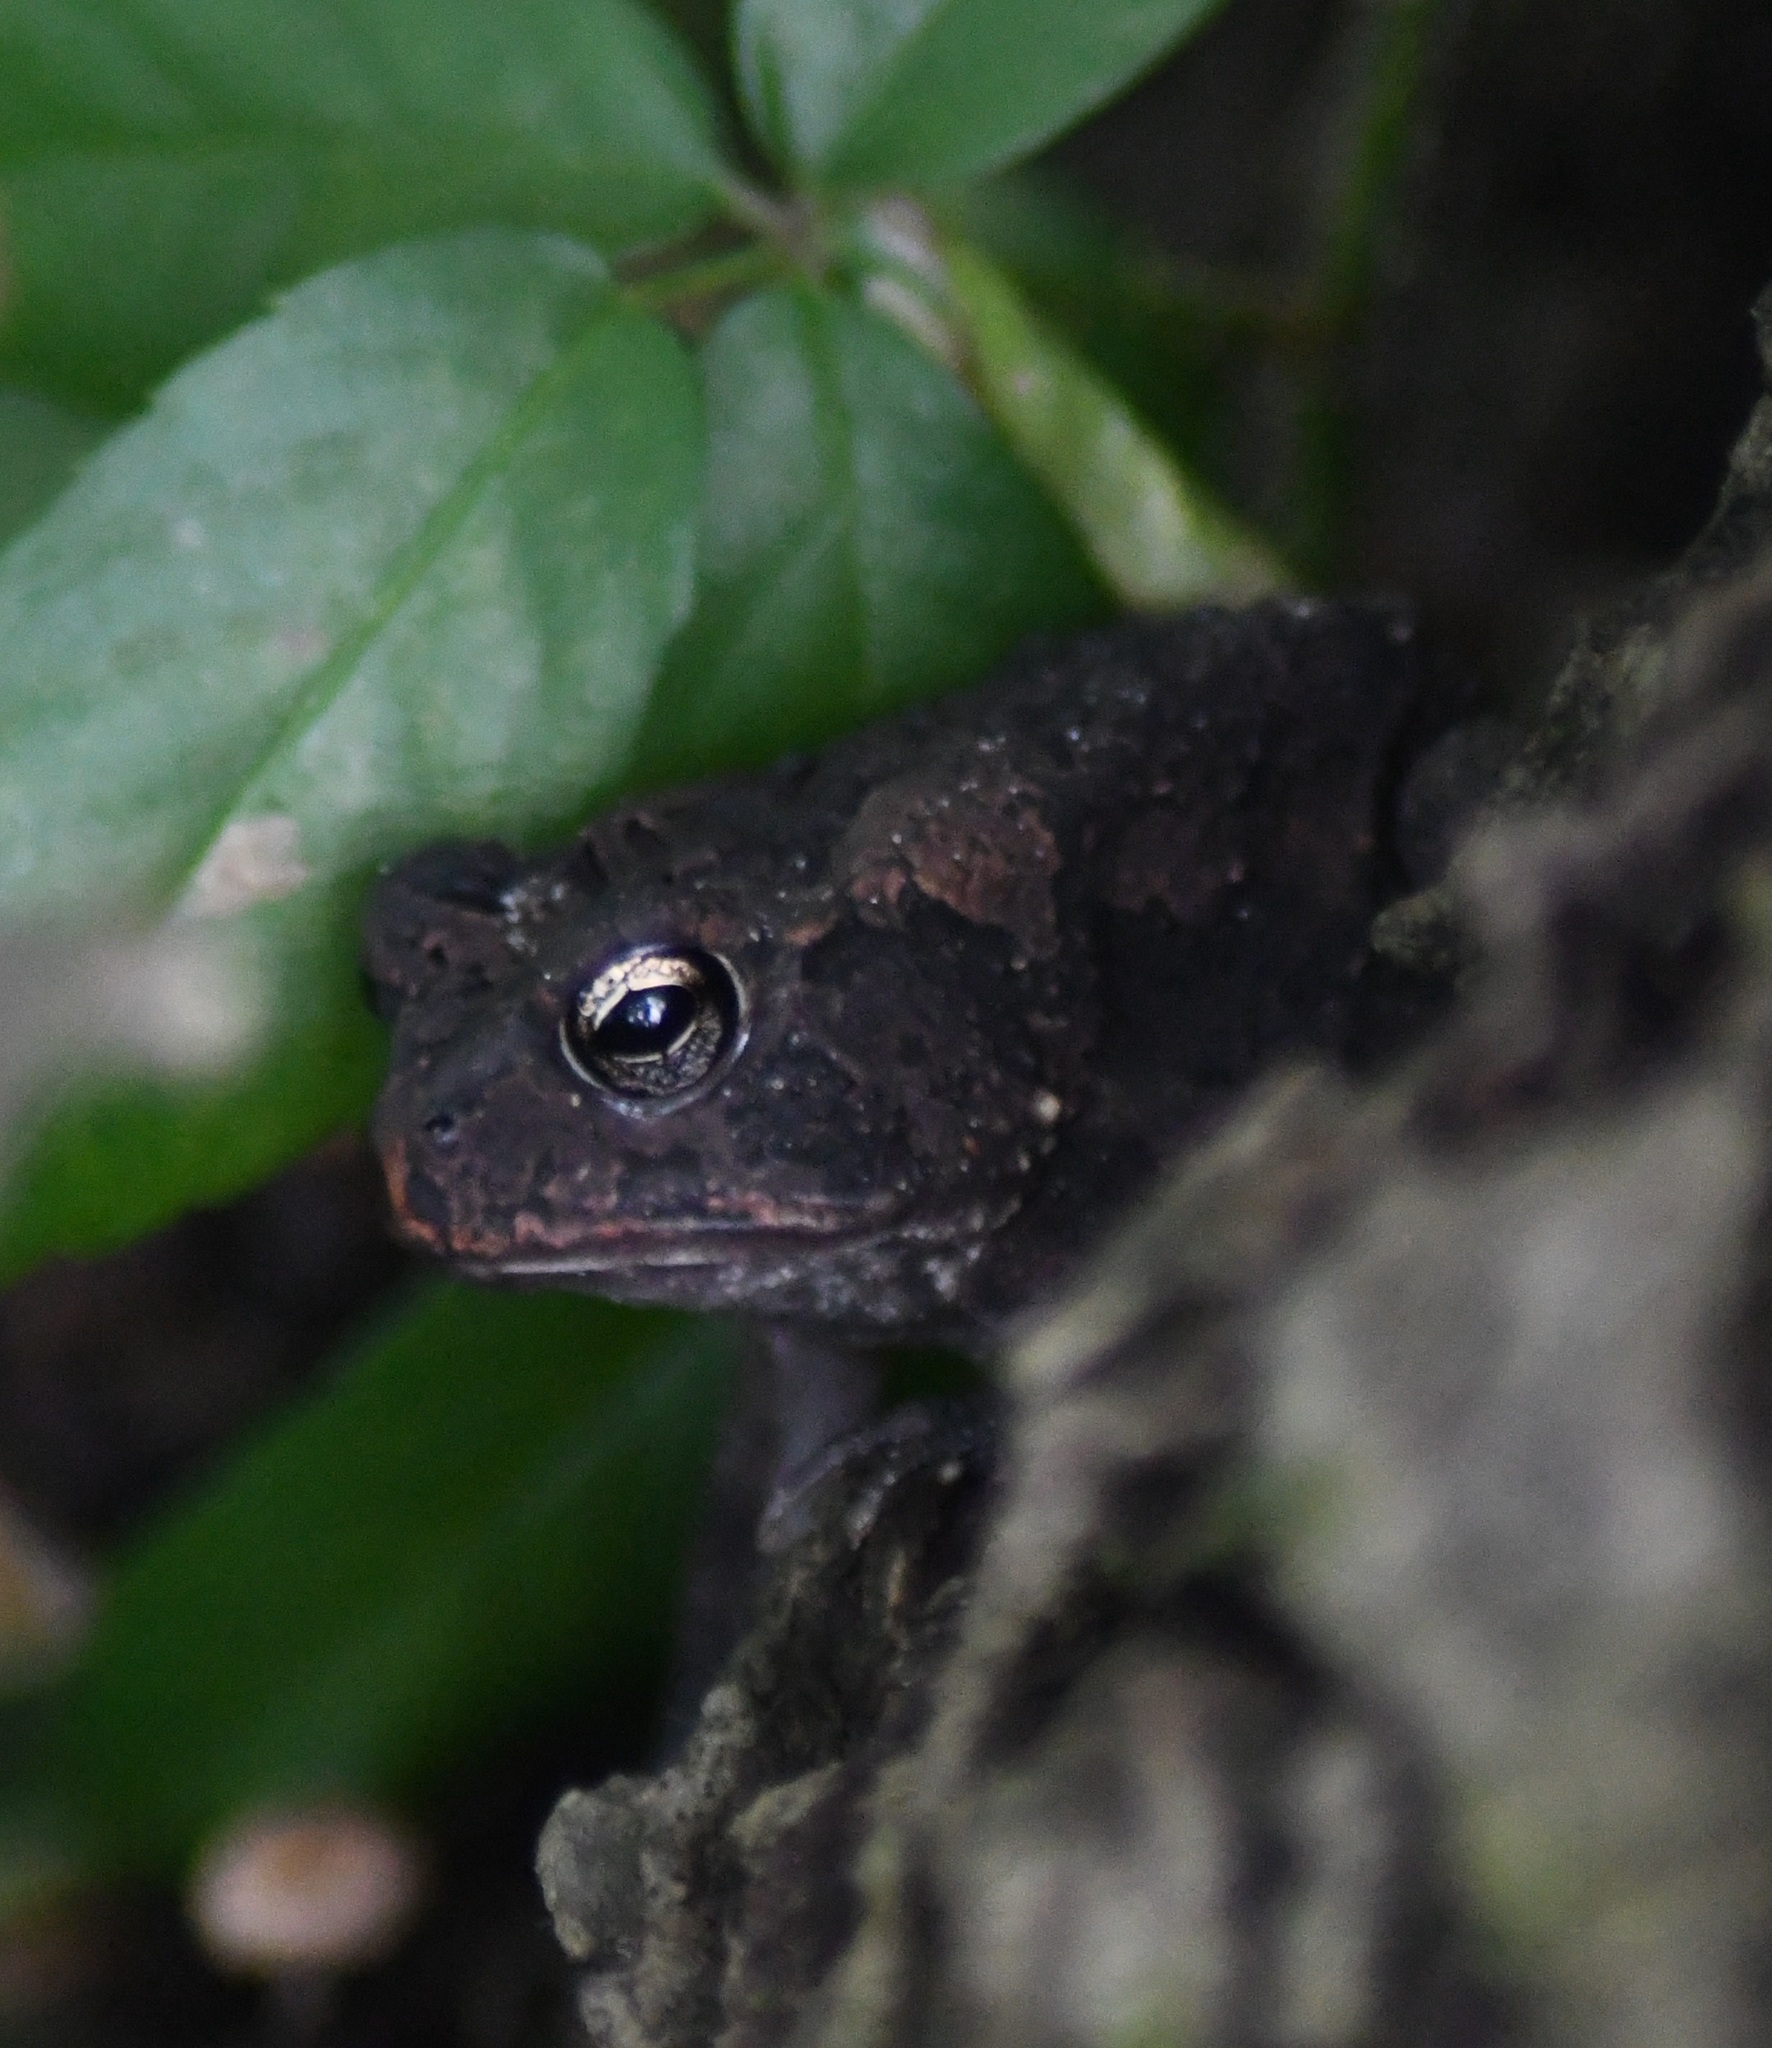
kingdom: Animalia
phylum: Chordata
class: Amphibia
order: Anura
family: Bufonidae
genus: Anaxyrus
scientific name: Anaxyrus terrestris
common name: Southern toad
